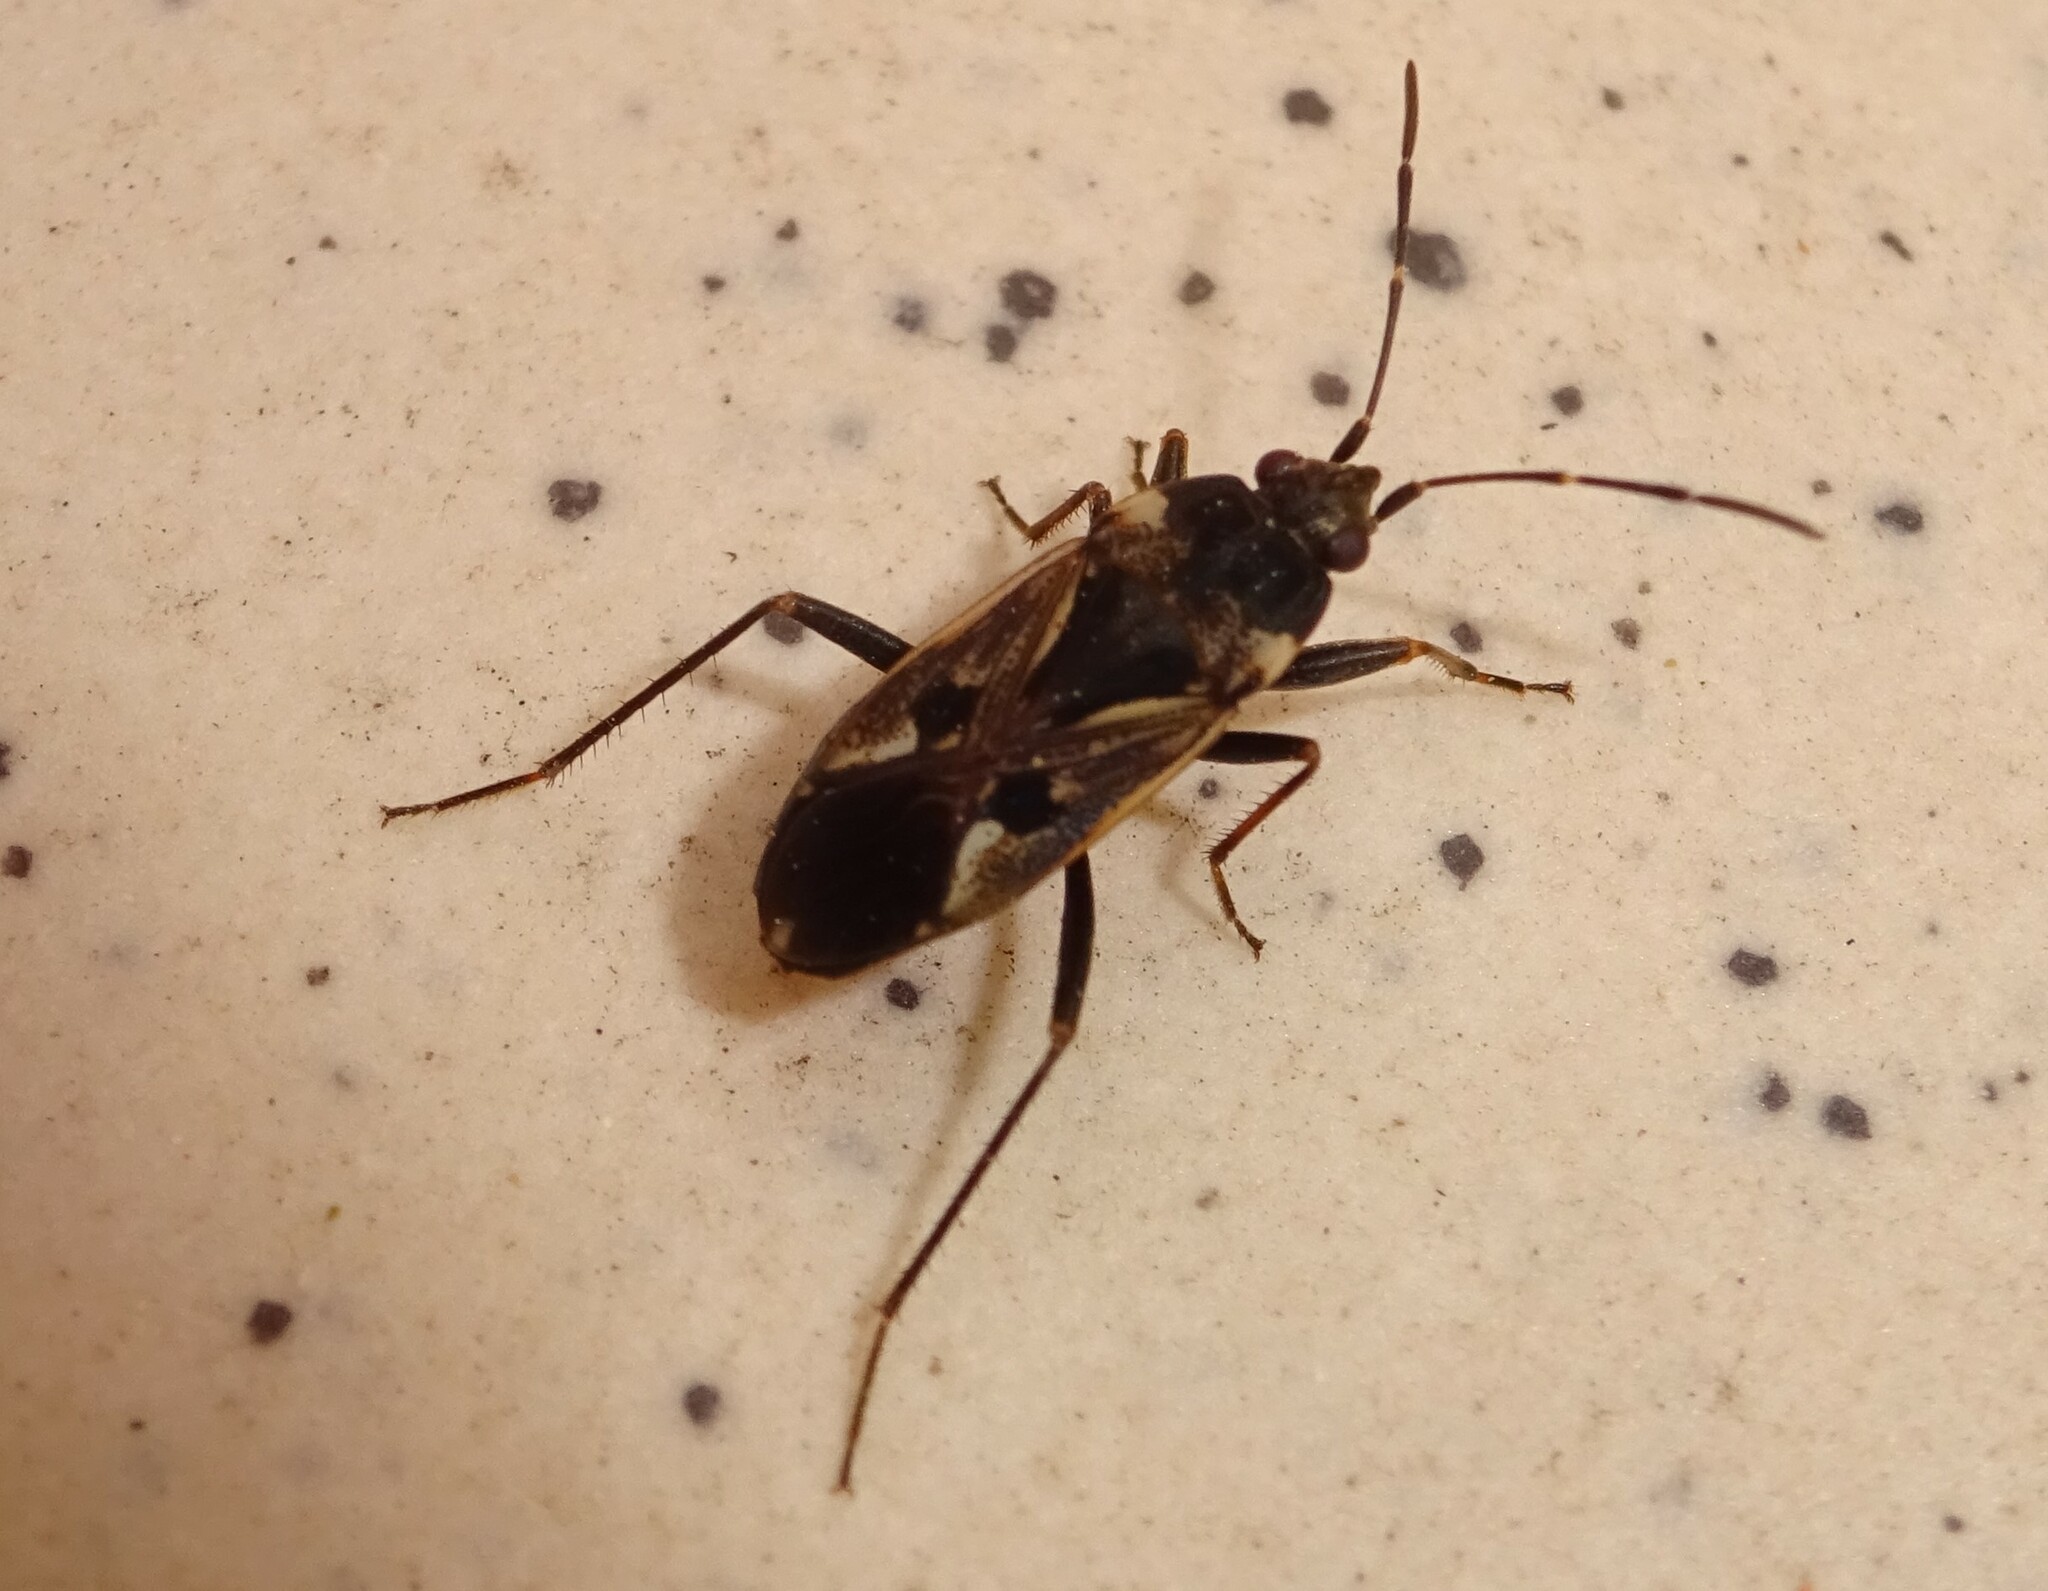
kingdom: Animalia
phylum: Arthropoda
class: Insecta
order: Hemiptera
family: Rhyparochromidae
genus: Rhyparochromus
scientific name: Rhyparochromus vulgaris
